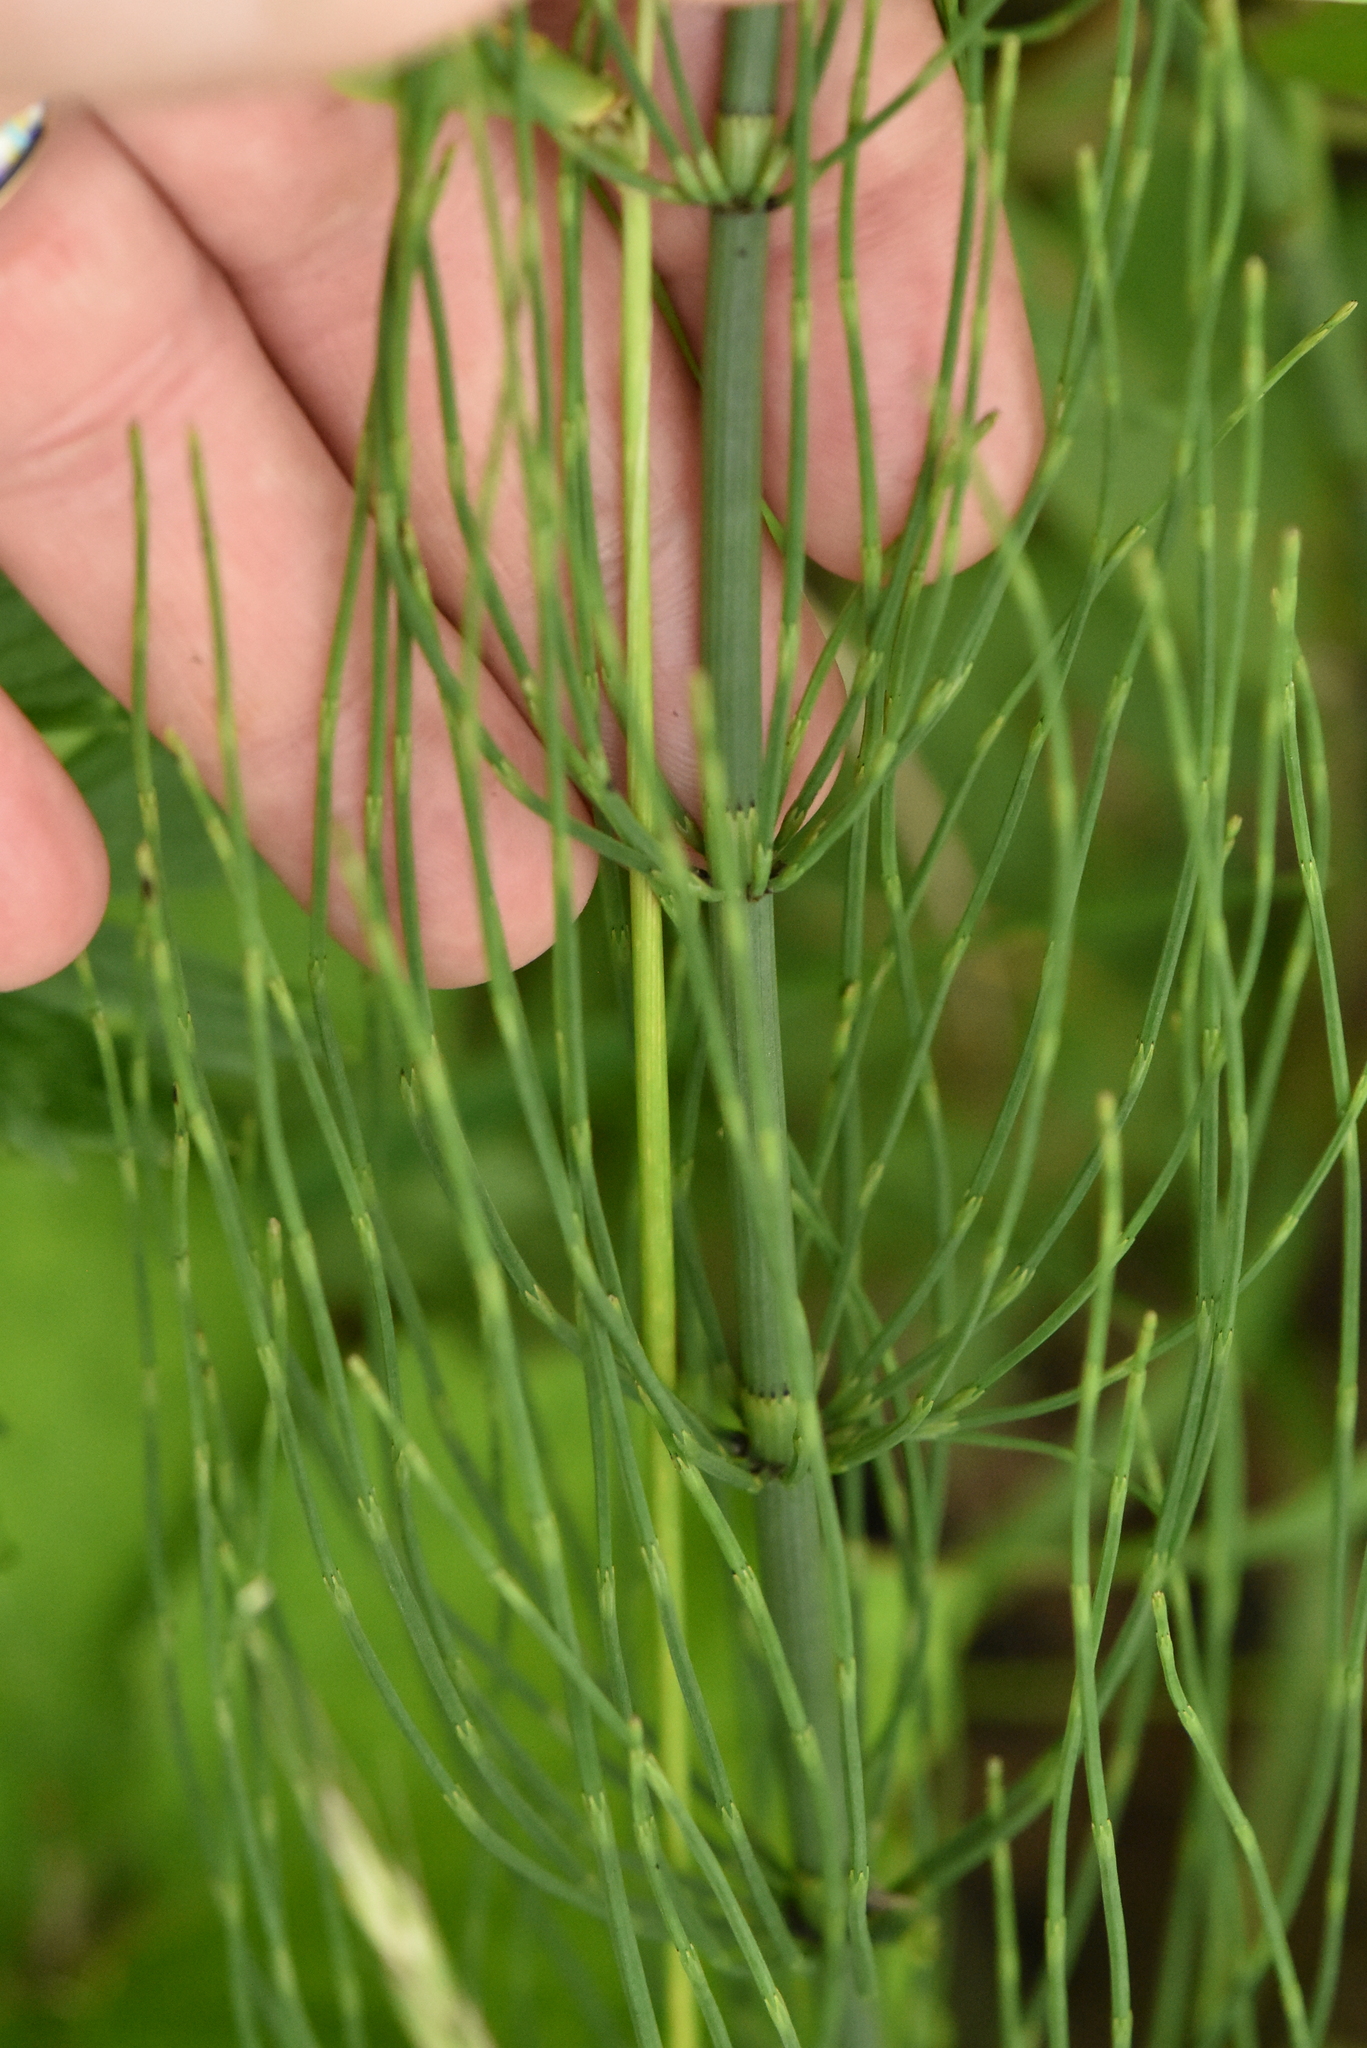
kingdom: Plantae
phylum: Tracheophyta
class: Polypodiopsida
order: Equisetales
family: Equisetaceae
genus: Equisetum
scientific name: Equisetum fluviatile
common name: Water horsetail
